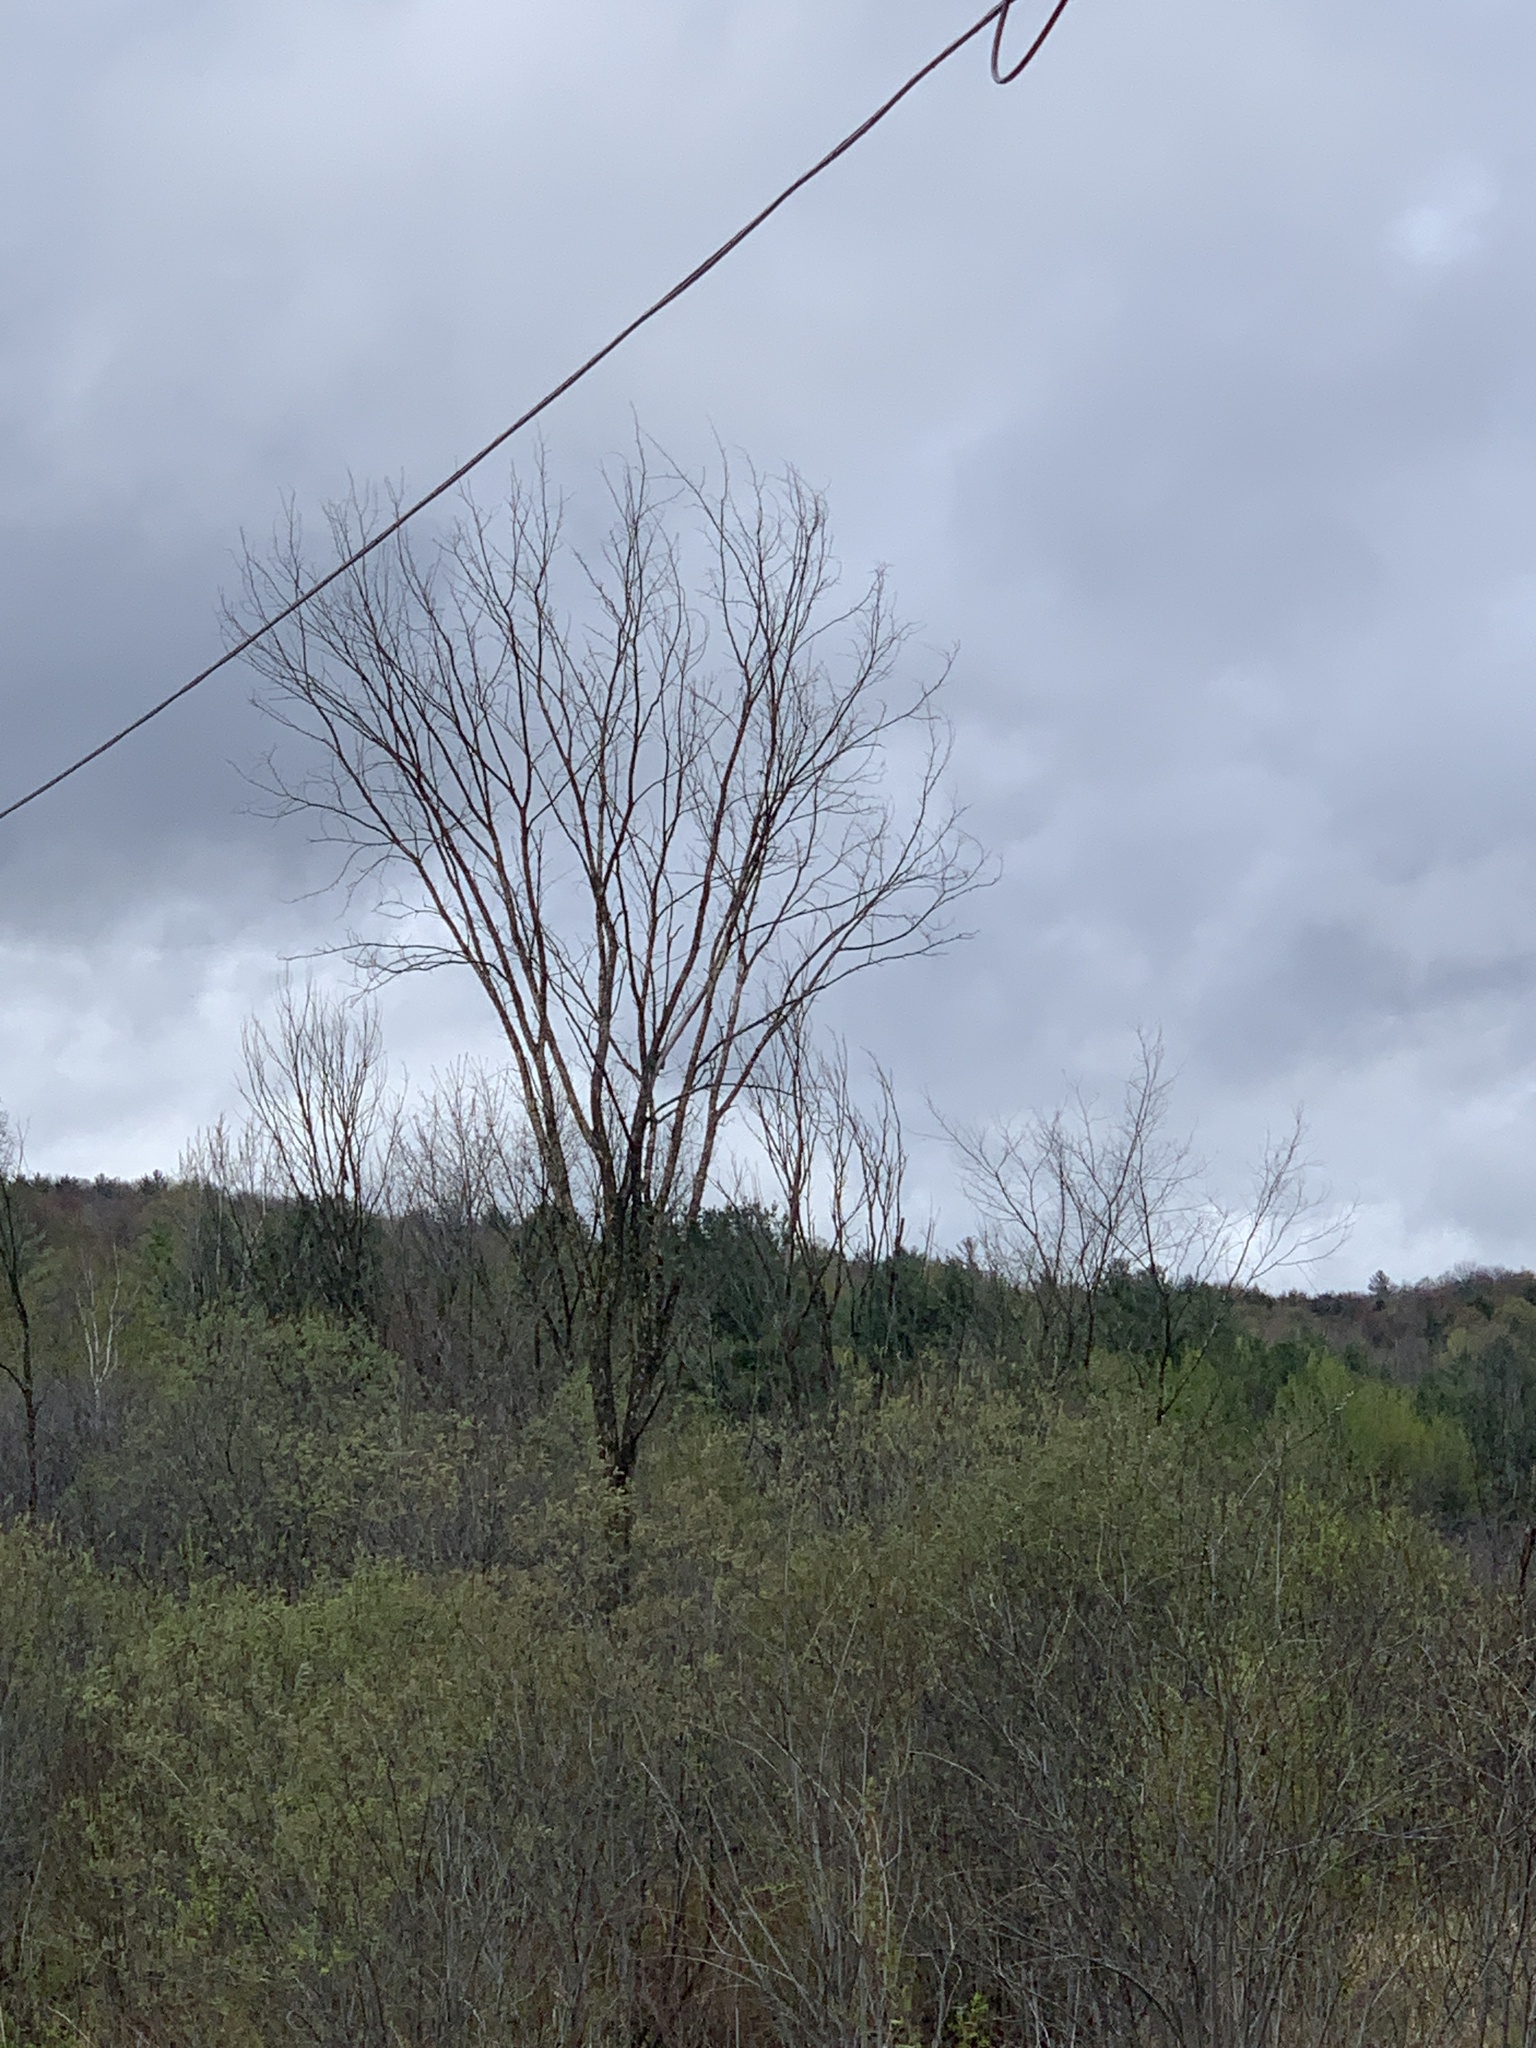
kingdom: Plantae
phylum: Tracheophyta
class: Magnoliopsida
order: Rosales
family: Ulmaceae
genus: Ulmus
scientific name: Ulmus americana
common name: American elm
